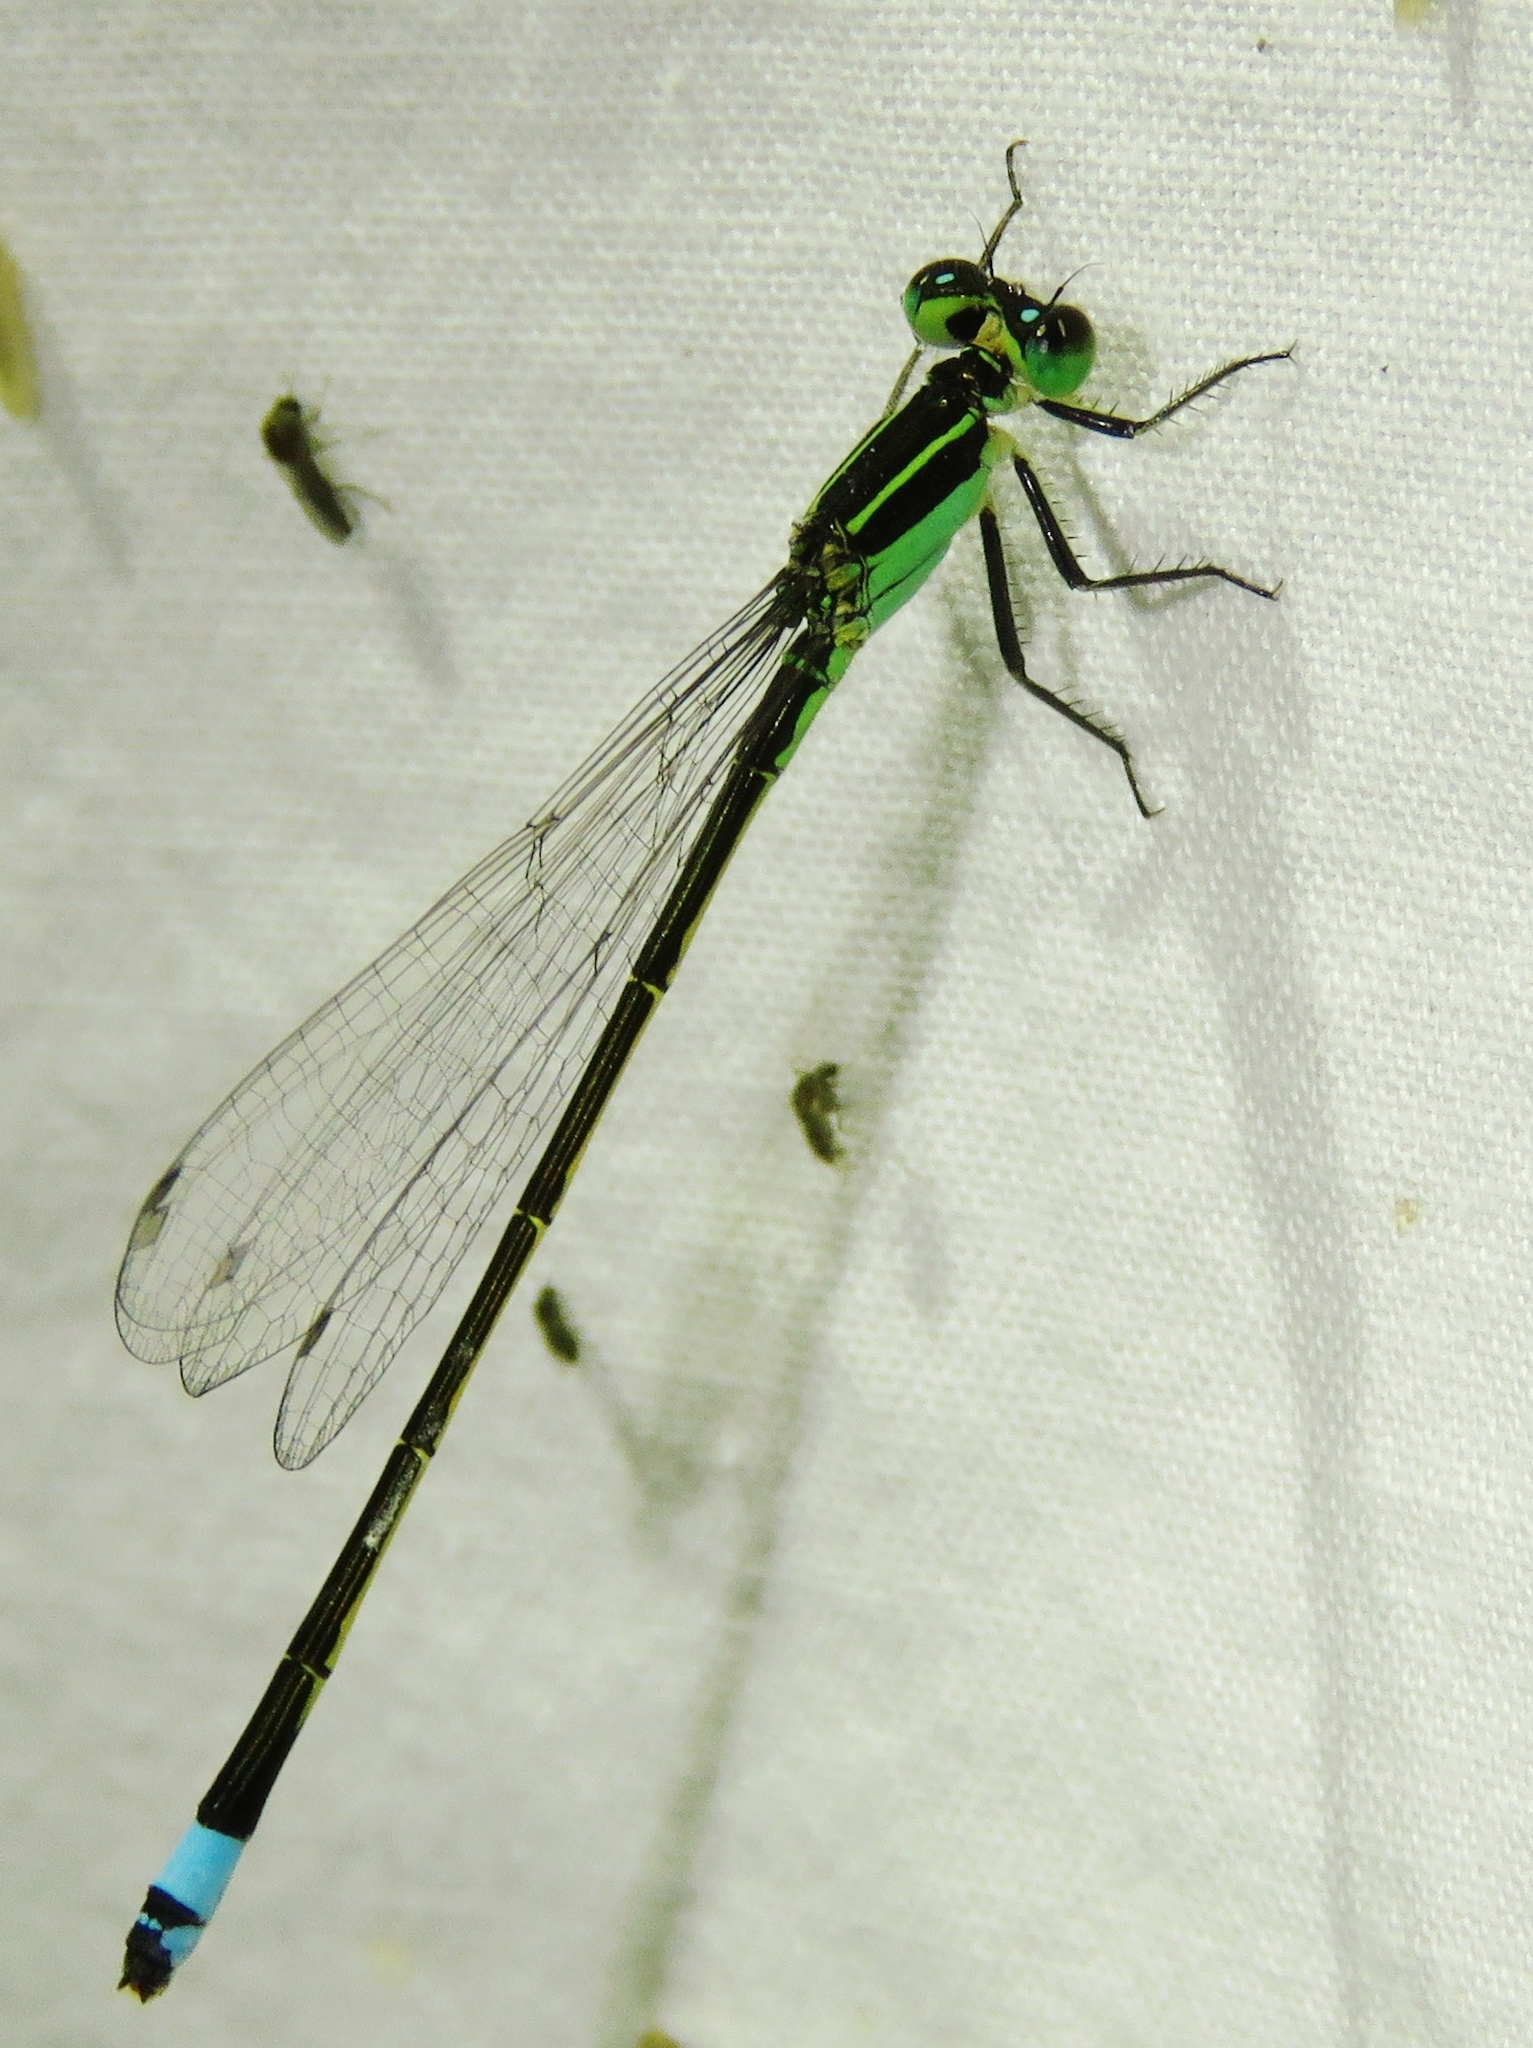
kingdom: Animalia
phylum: Arthropoda
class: Insecta
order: Odonata
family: Coenagrionidae
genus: Ischnura
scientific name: Ischnura ramburii
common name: Rambur's forktail
